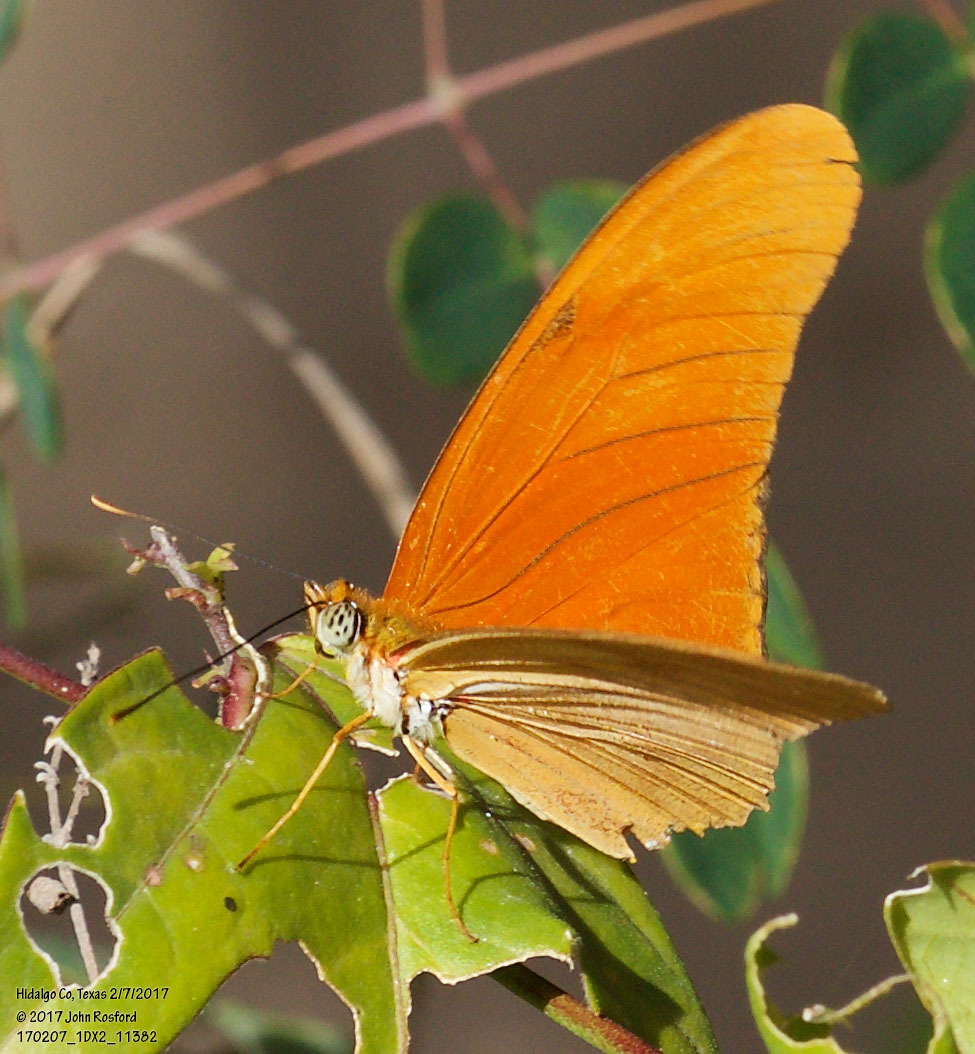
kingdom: Animalia
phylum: Arthropoda
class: Insecta
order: Lepidoptera
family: Nymphalidae
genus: Dryas
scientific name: Dryas iulia
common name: Flambeau
